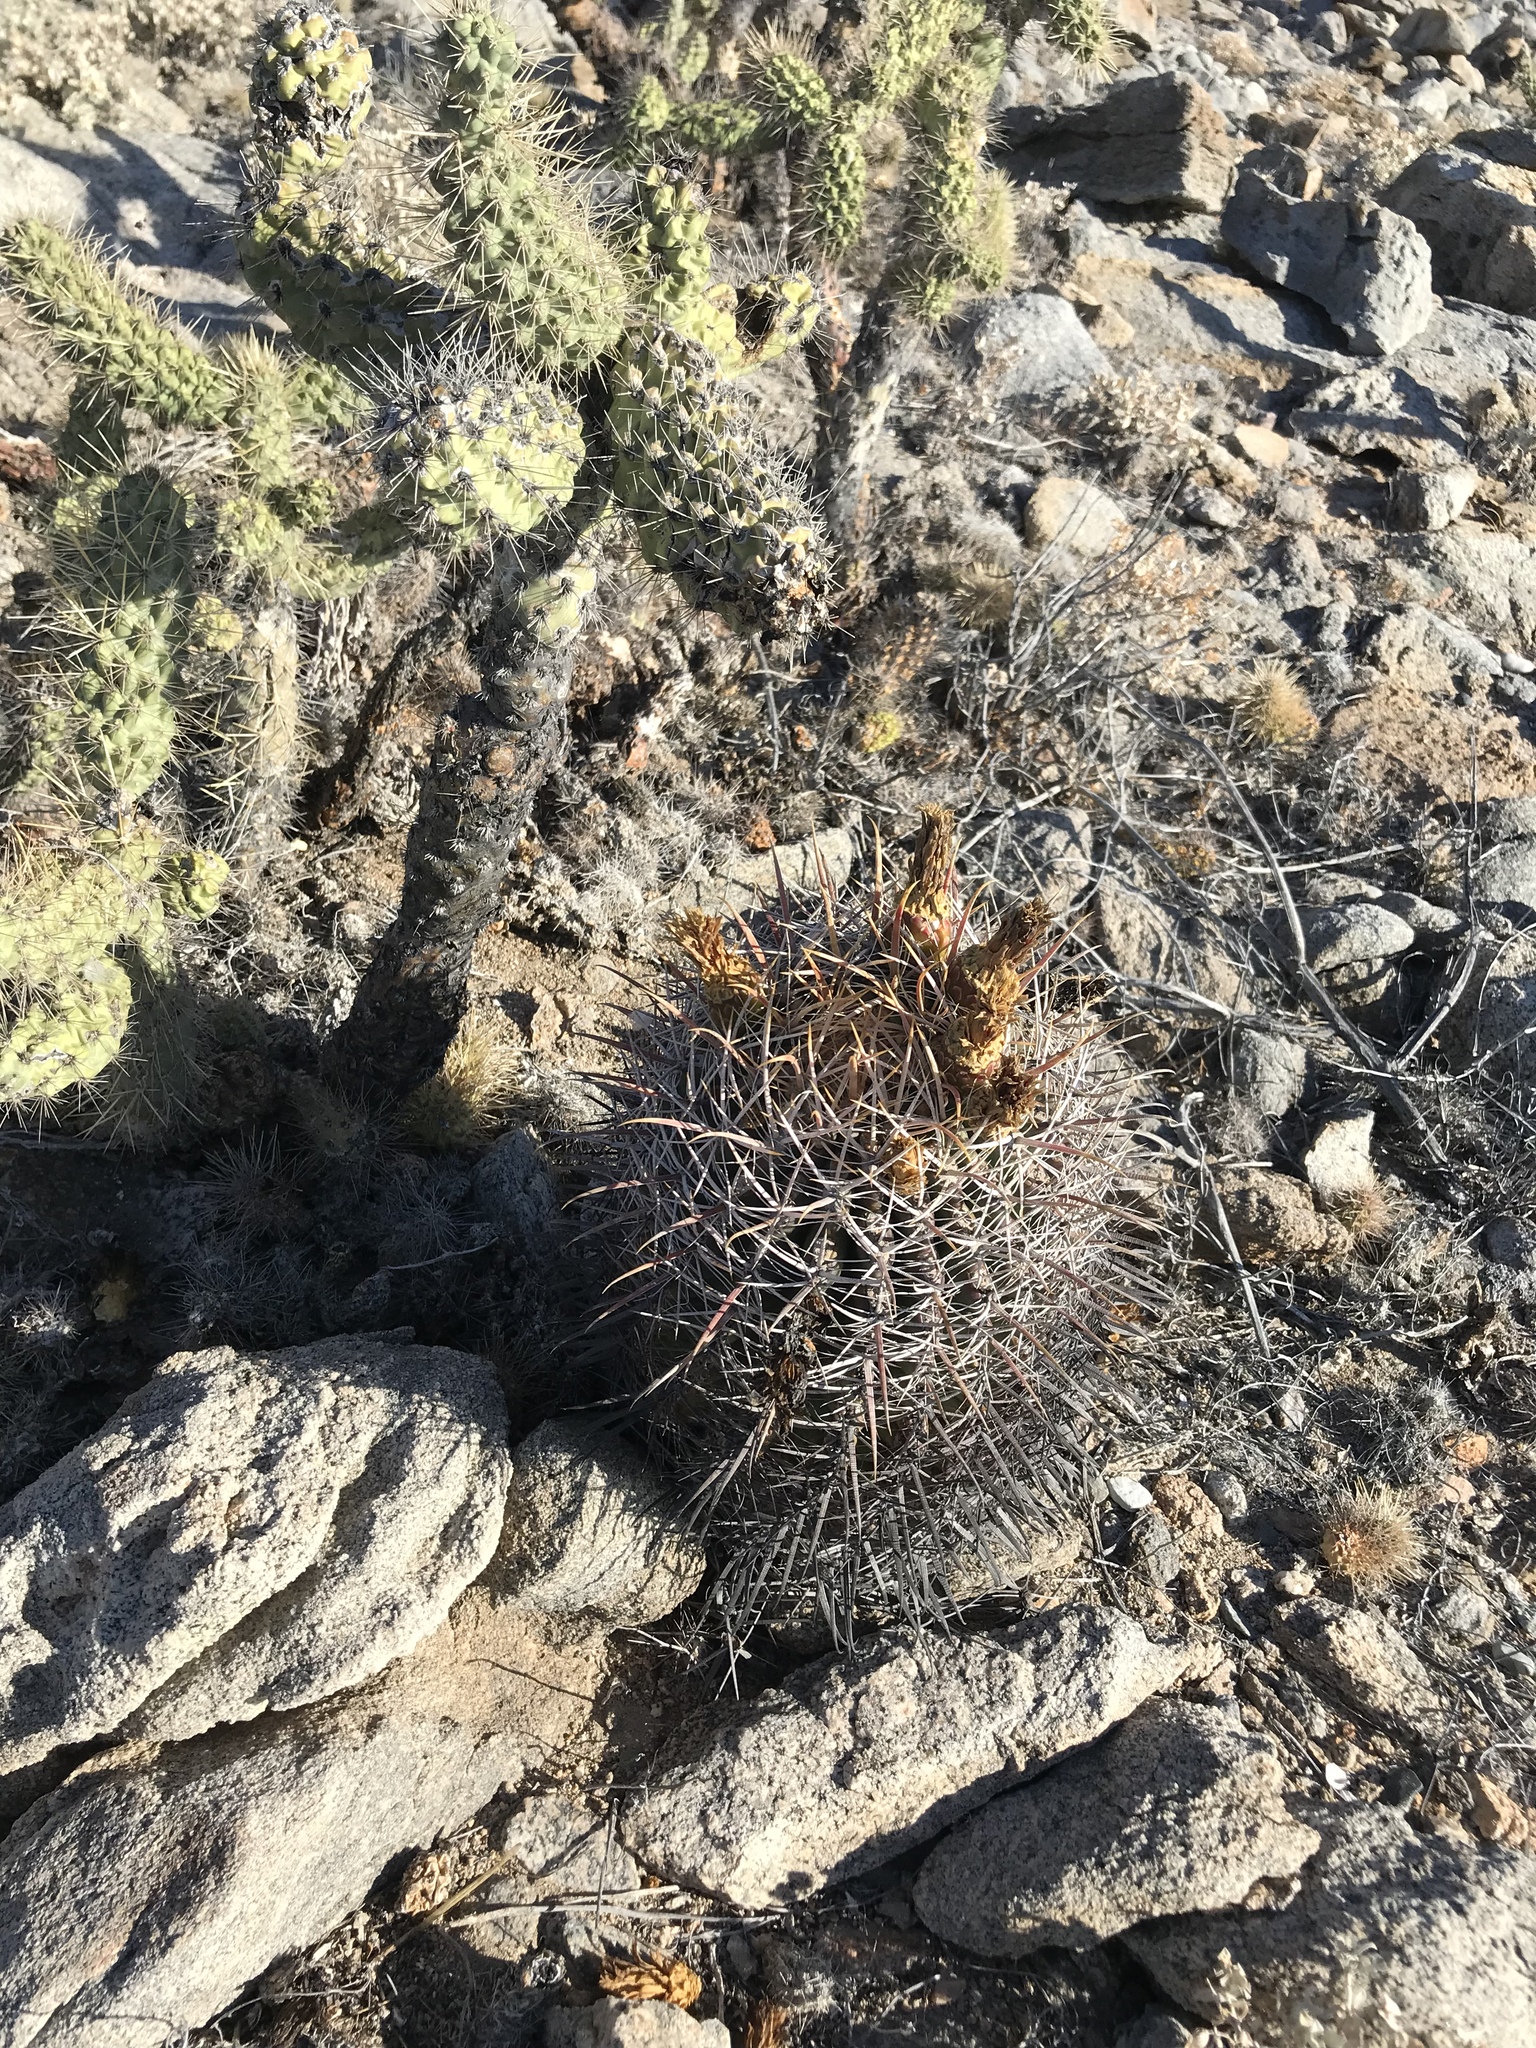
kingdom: Plantae
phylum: Tracheophyta
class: Magnoliopsida
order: Caryophyllales
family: Cactaceae
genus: Ferocactus
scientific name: Ferocactus gracilis
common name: Fire barrel cactus
